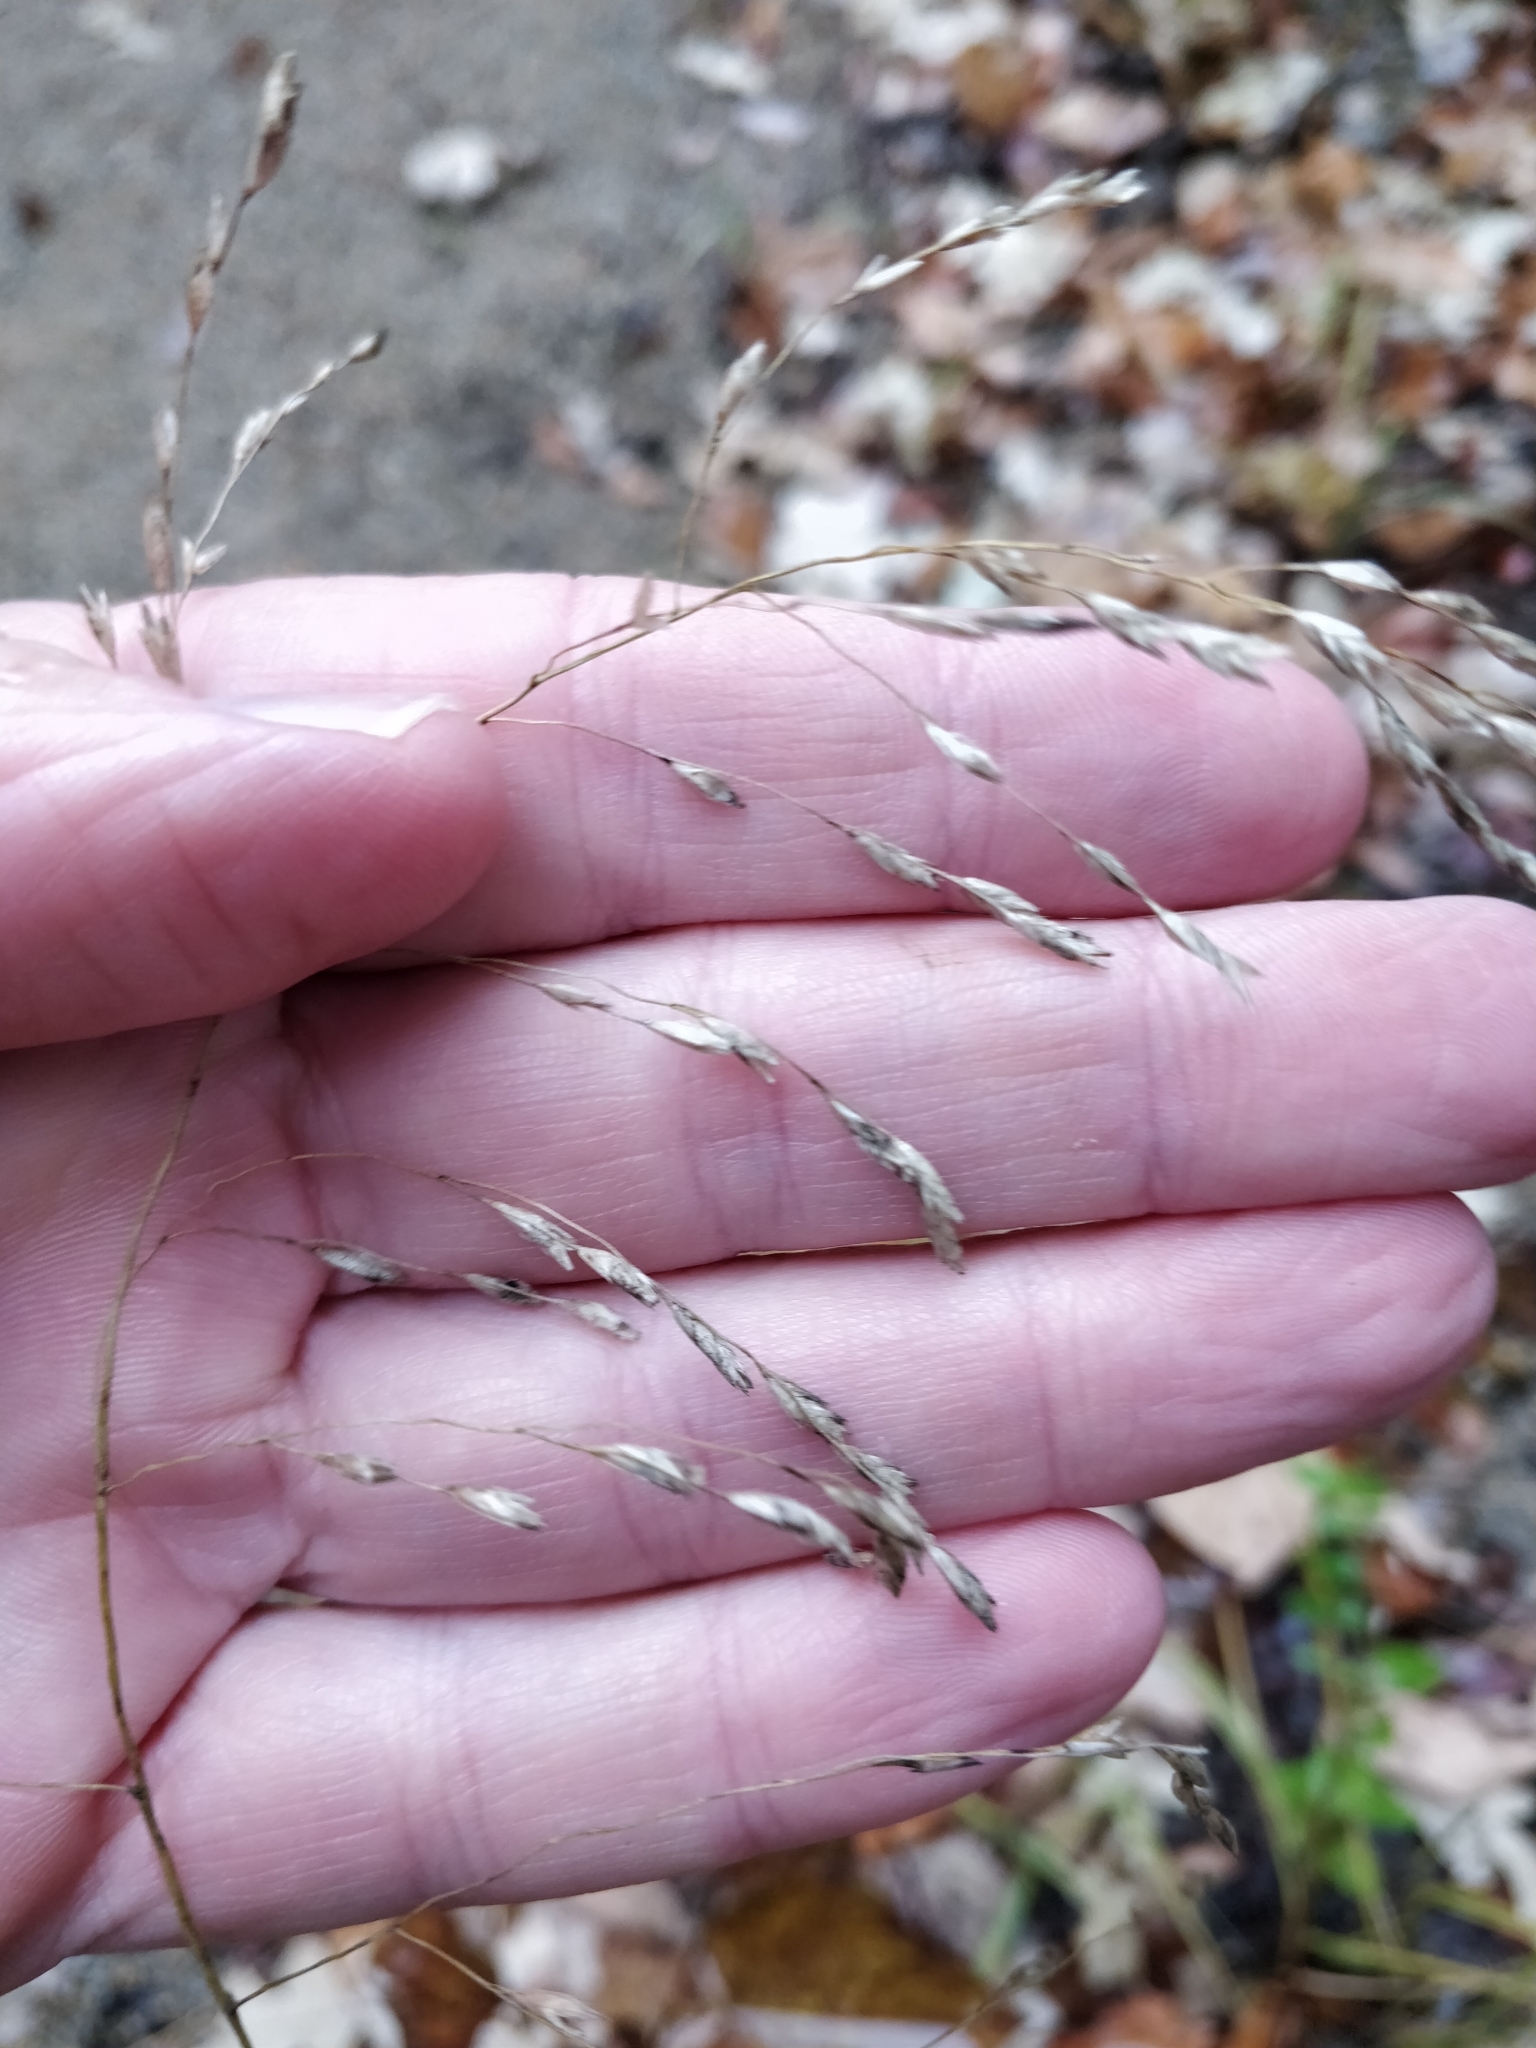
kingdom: Plantae
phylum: Tracheophyta
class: Liliopsida
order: Poales
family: Poaceae
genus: Tridens
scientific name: Tridens flavus
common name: Purpletop
